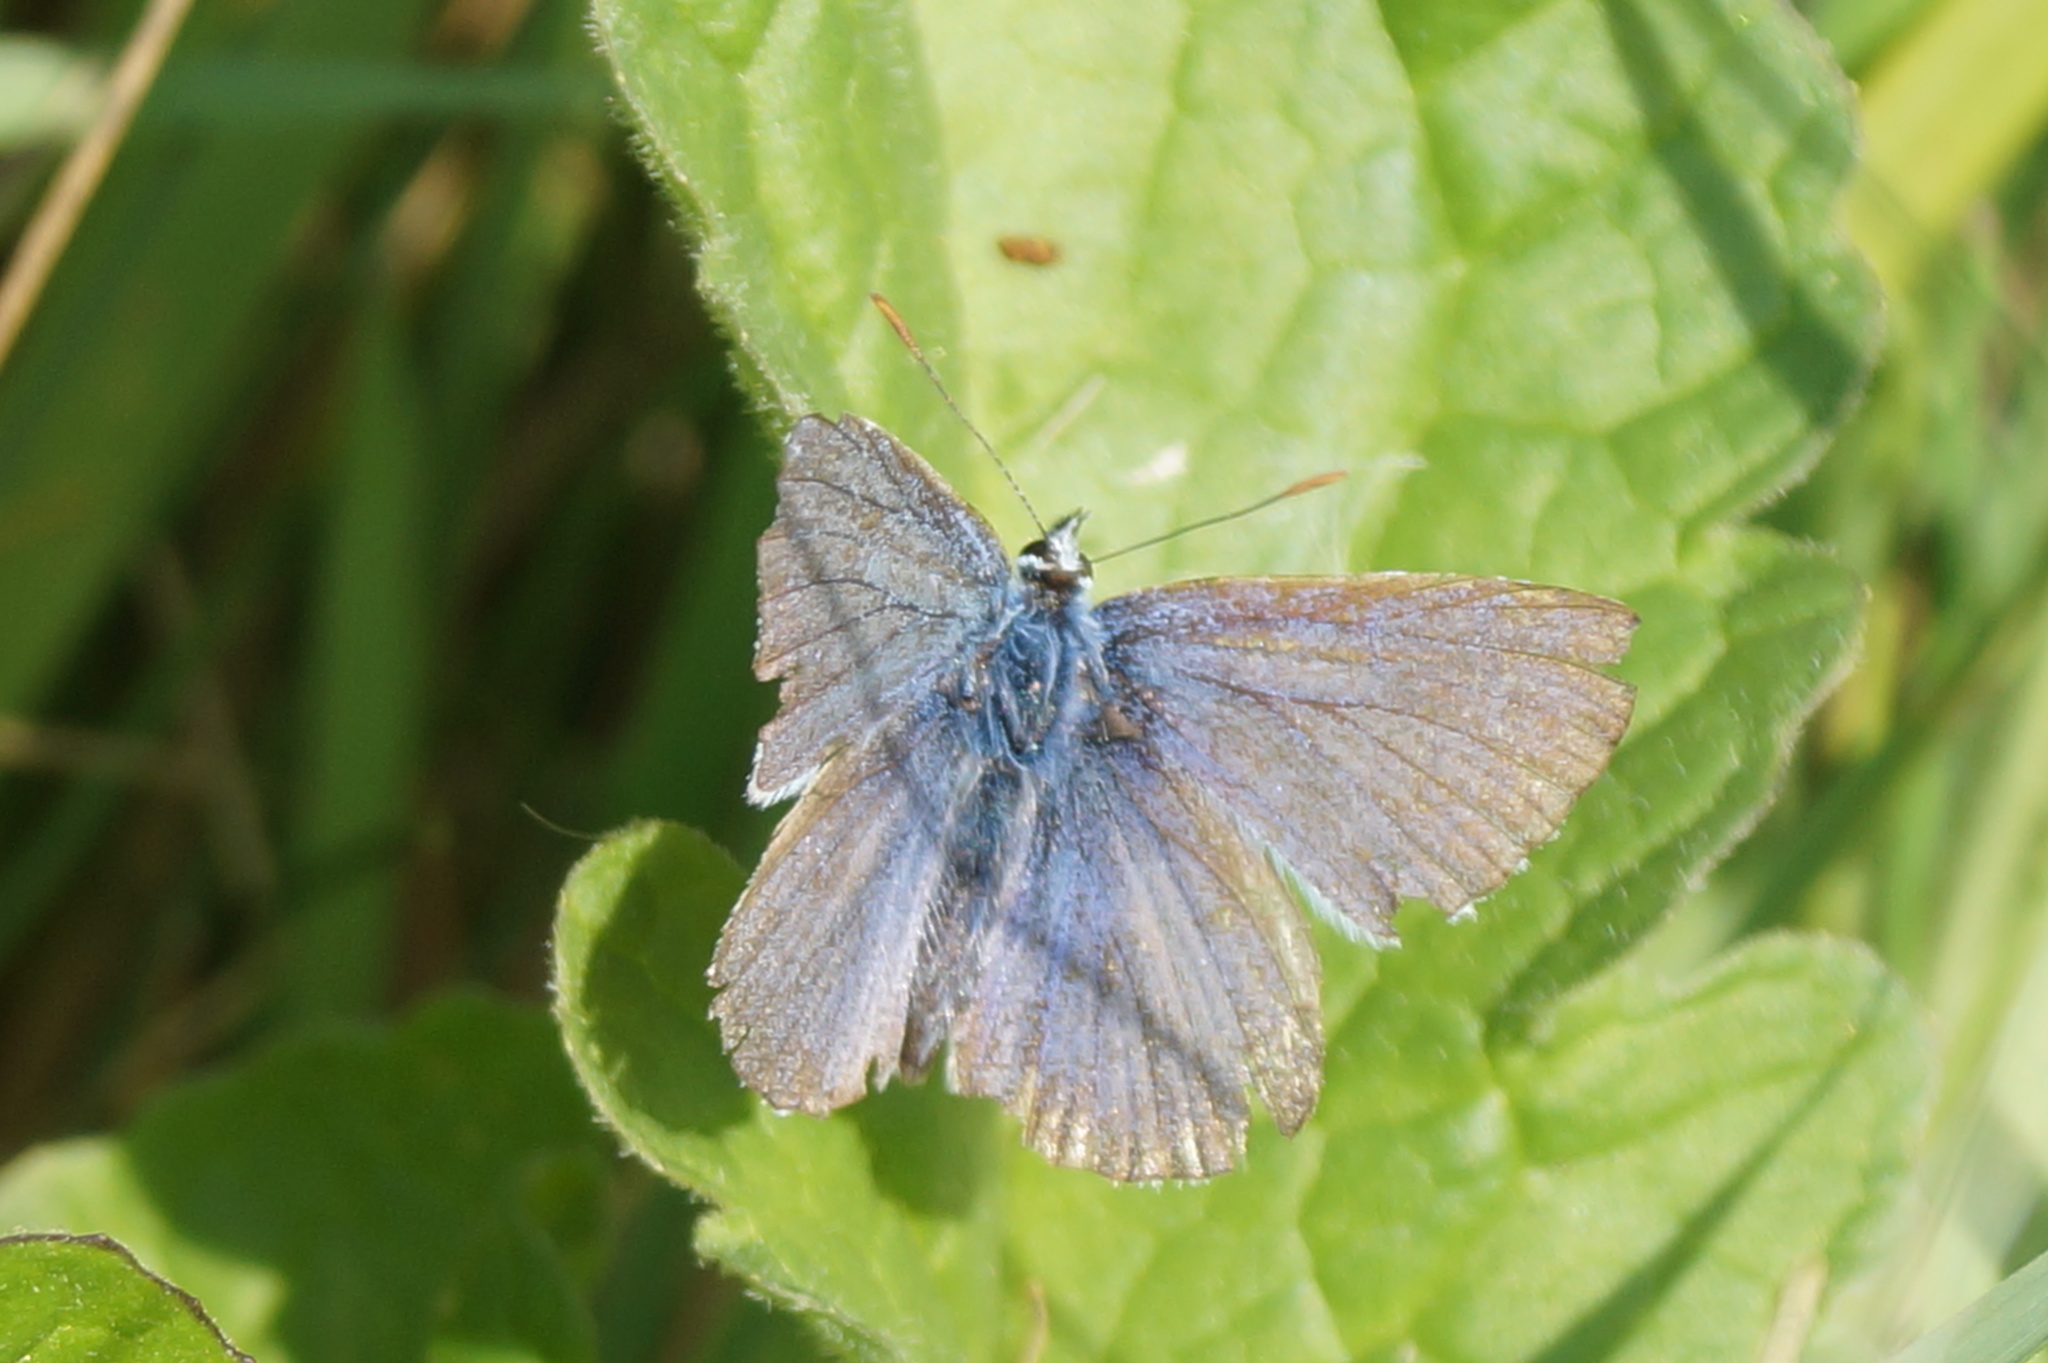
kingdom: Animalia
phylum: Arthropoda
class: Insecta
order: Lepidoptera
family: Lycaenidae
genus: Polyommatus
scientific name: Polyommatus icarus
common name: Common blue
